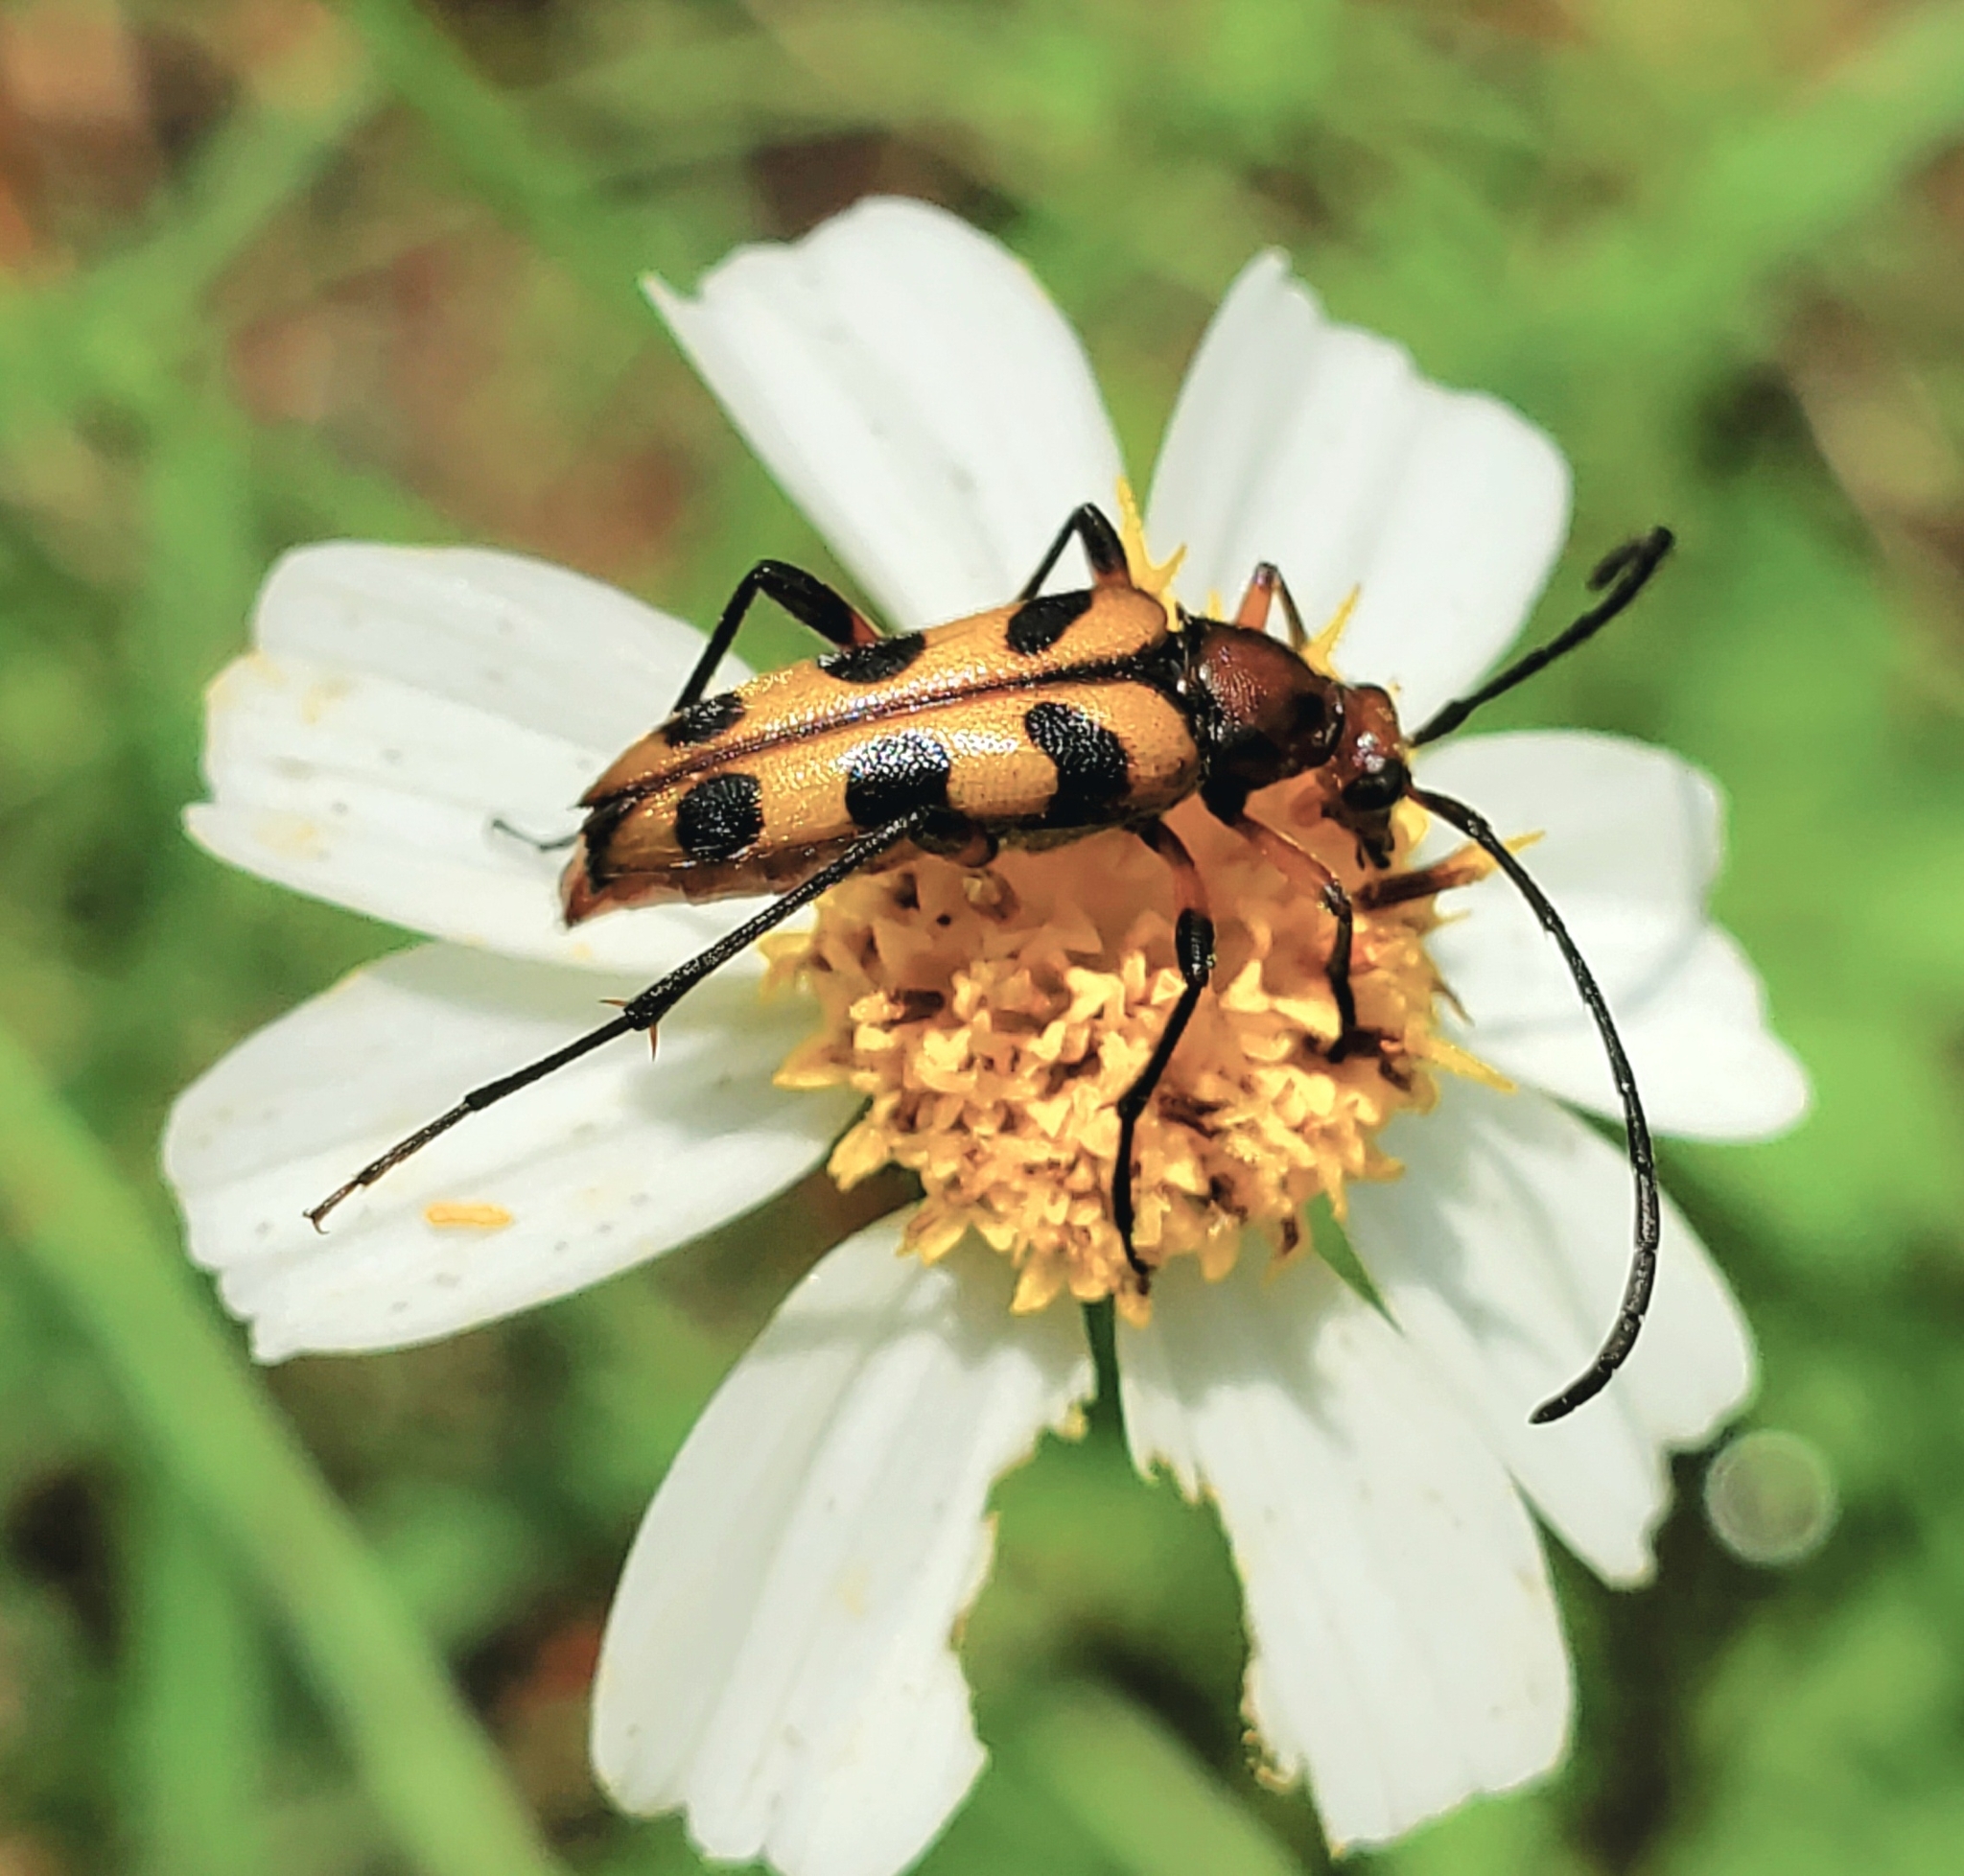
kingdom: Animalia
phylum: Arthropoda
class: Insecta
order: Coleoptera
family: Cerambycidae
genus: Strangalia
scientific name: Strangalia sexnotata
